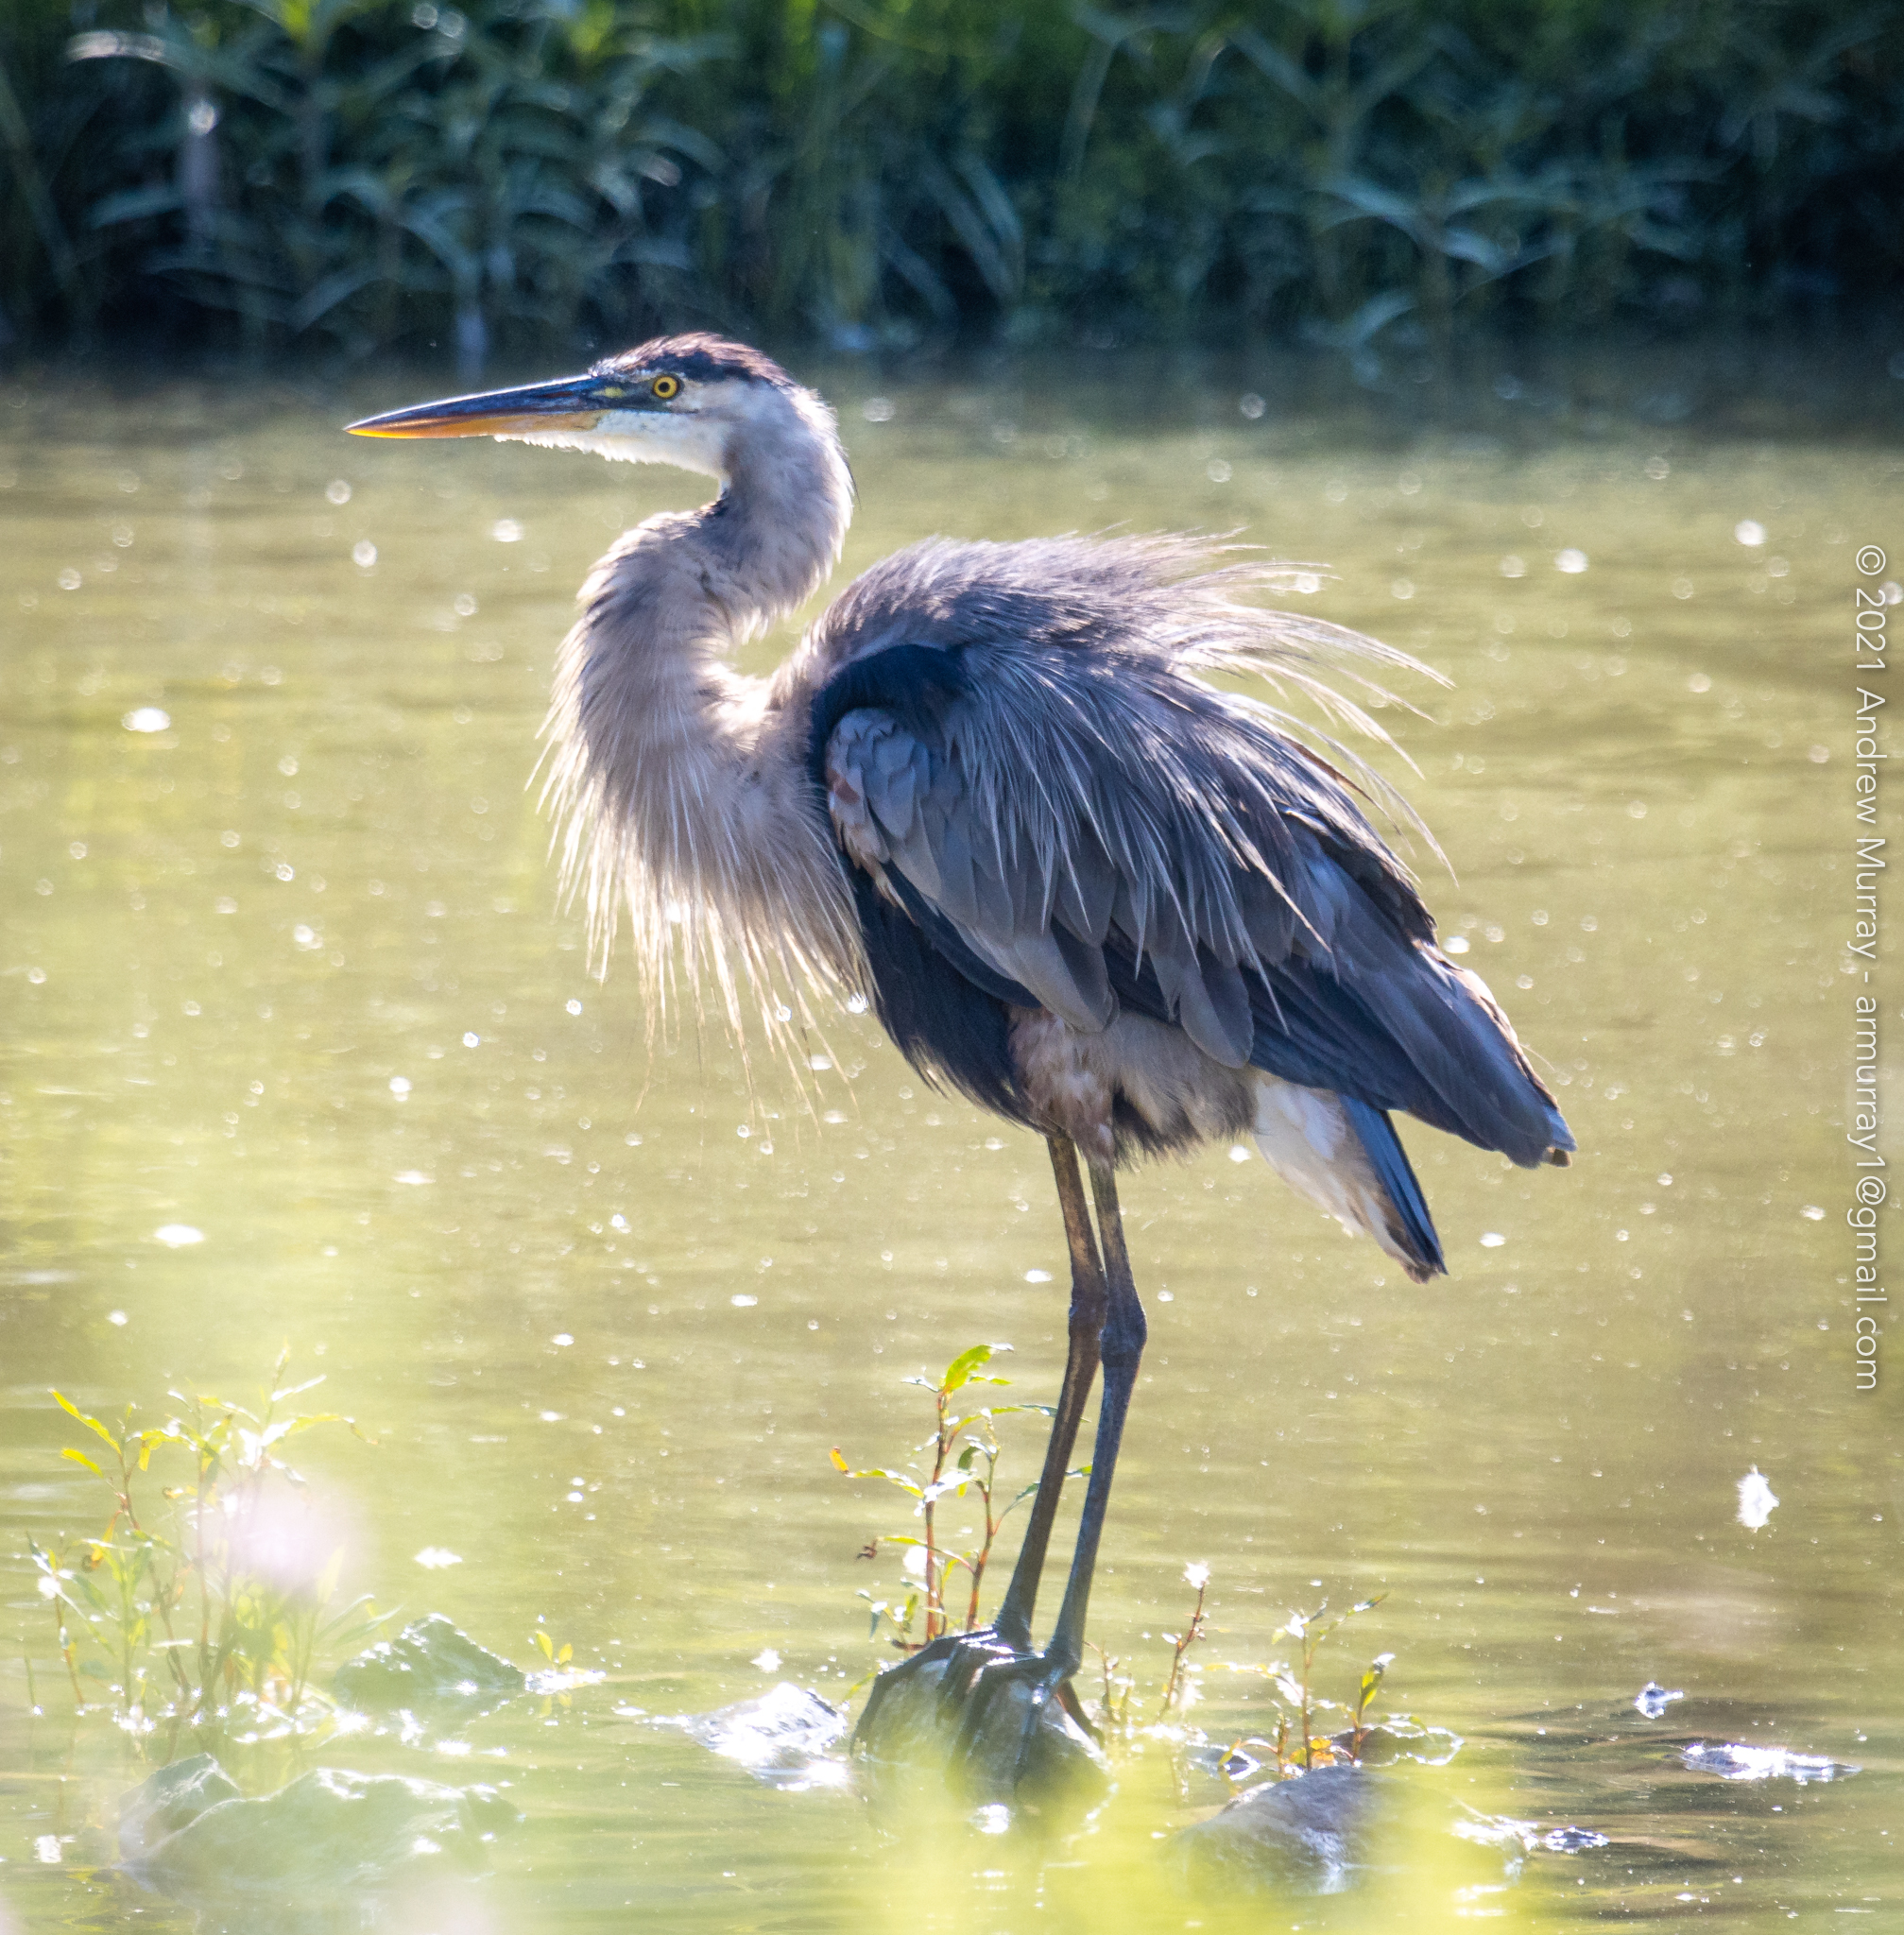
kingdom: Animalia
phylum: Chordata
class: Aves
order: Pelecaniformes
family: Ardeidae
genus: Ardea
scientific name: Ardea herodias
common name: Great blue heron
